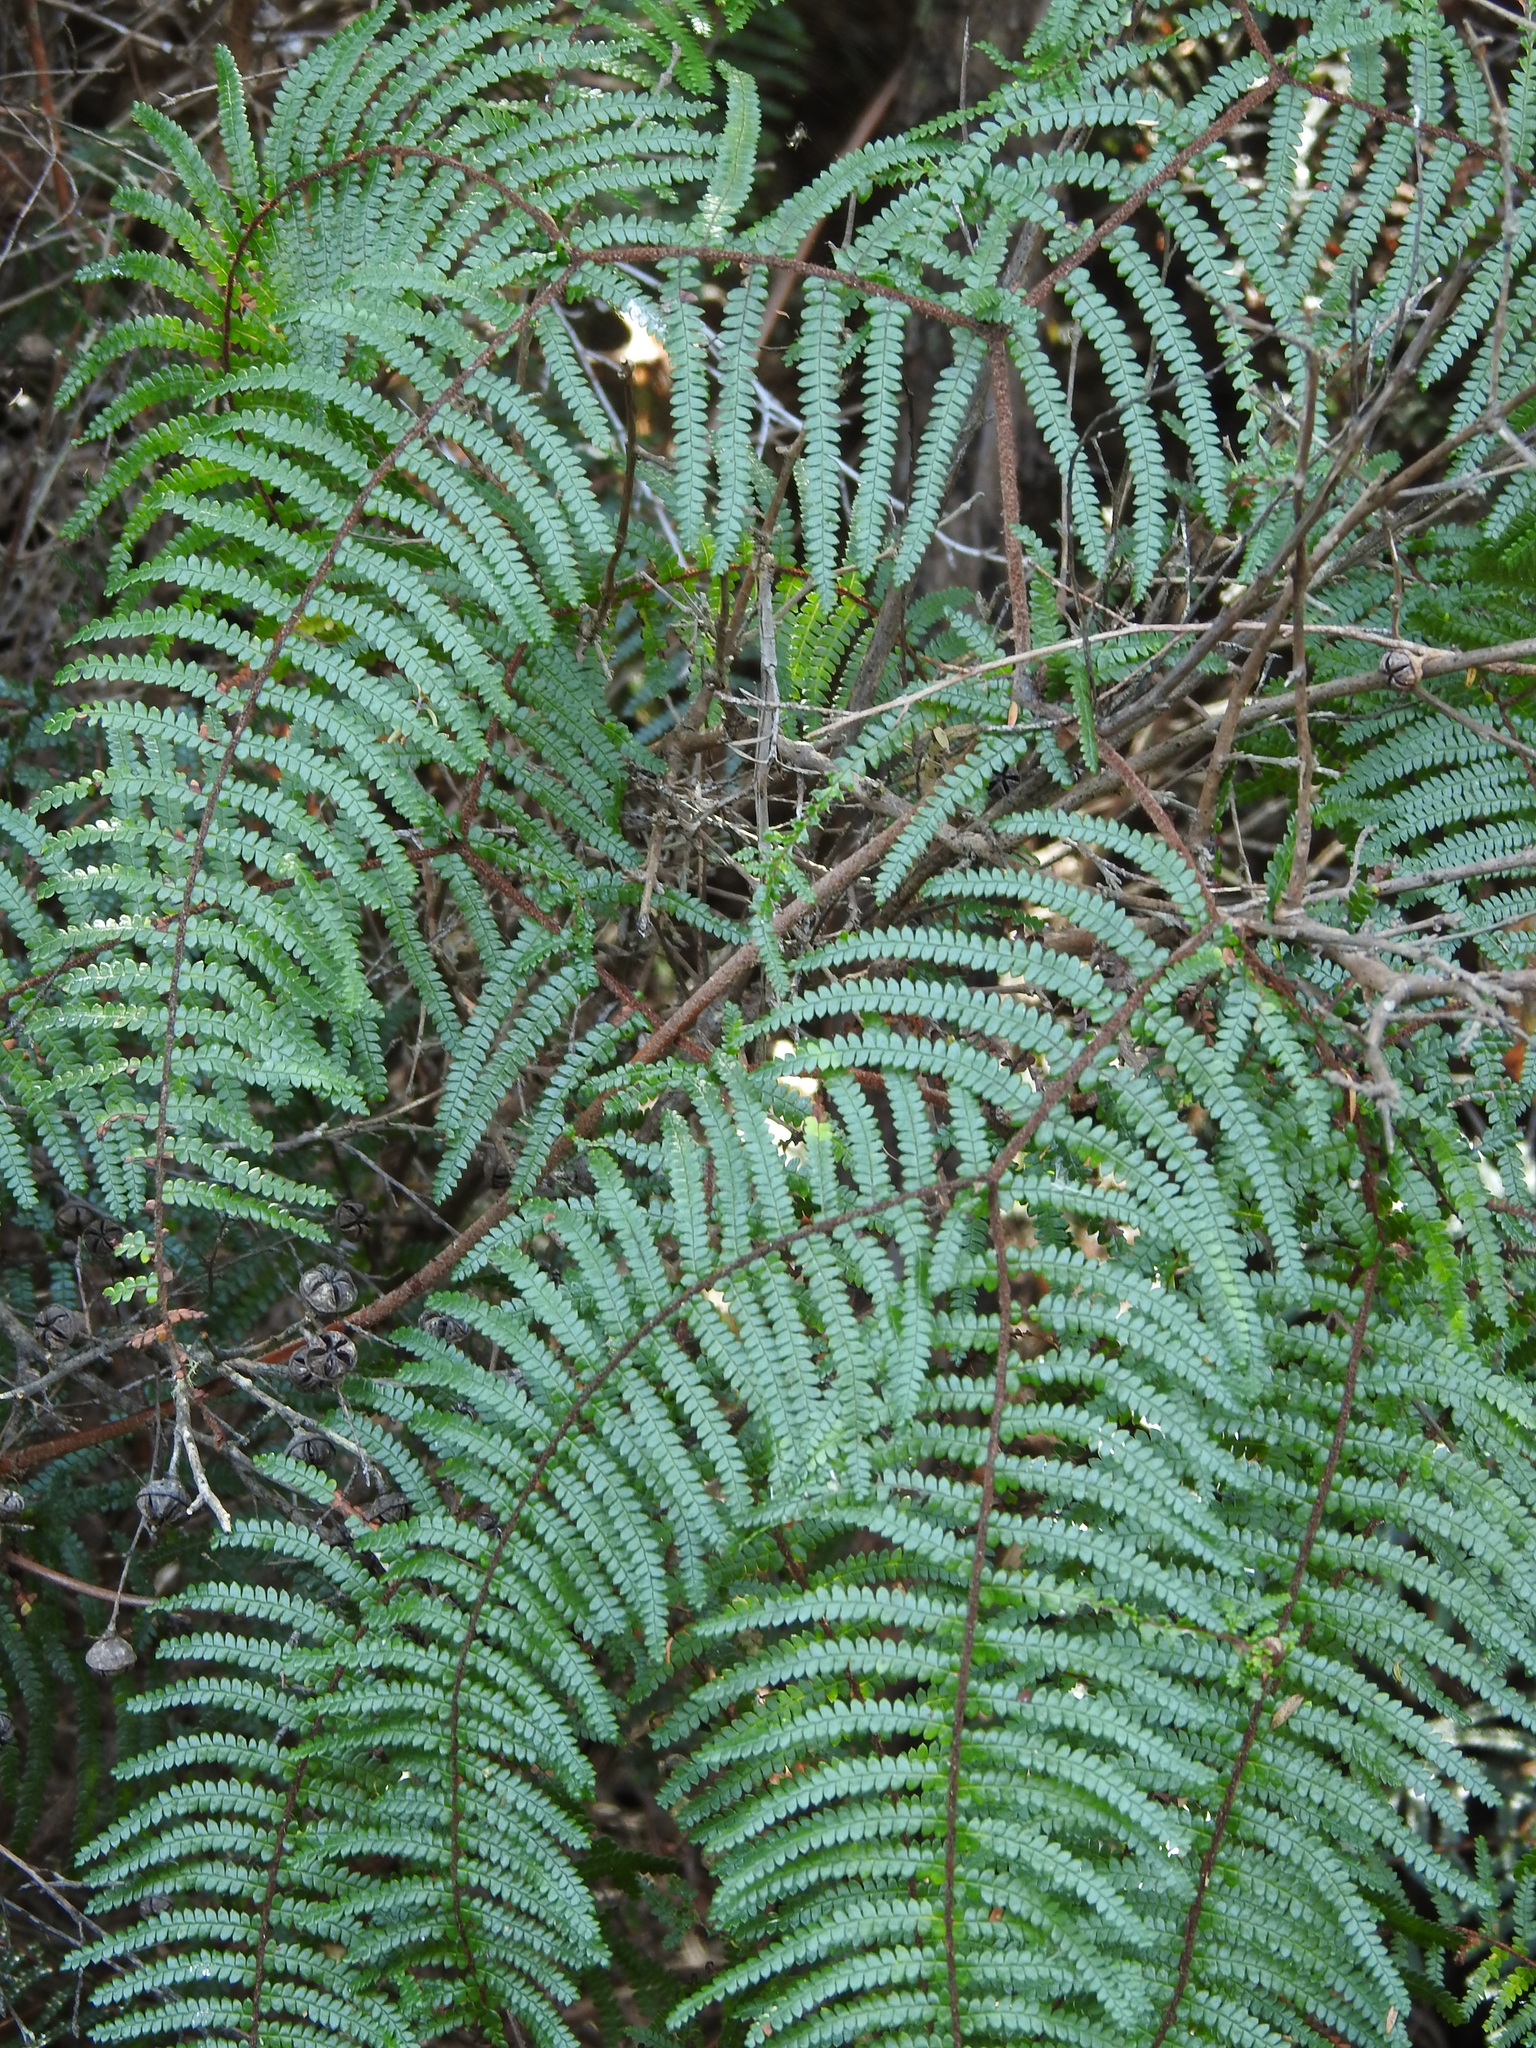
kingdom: Plantae
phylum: Tracheophyta
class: Polypodiopsida
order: Gleicheniales
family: Gleicheniaceae
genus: Gleichenia
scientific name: Gleichenia microphylla
